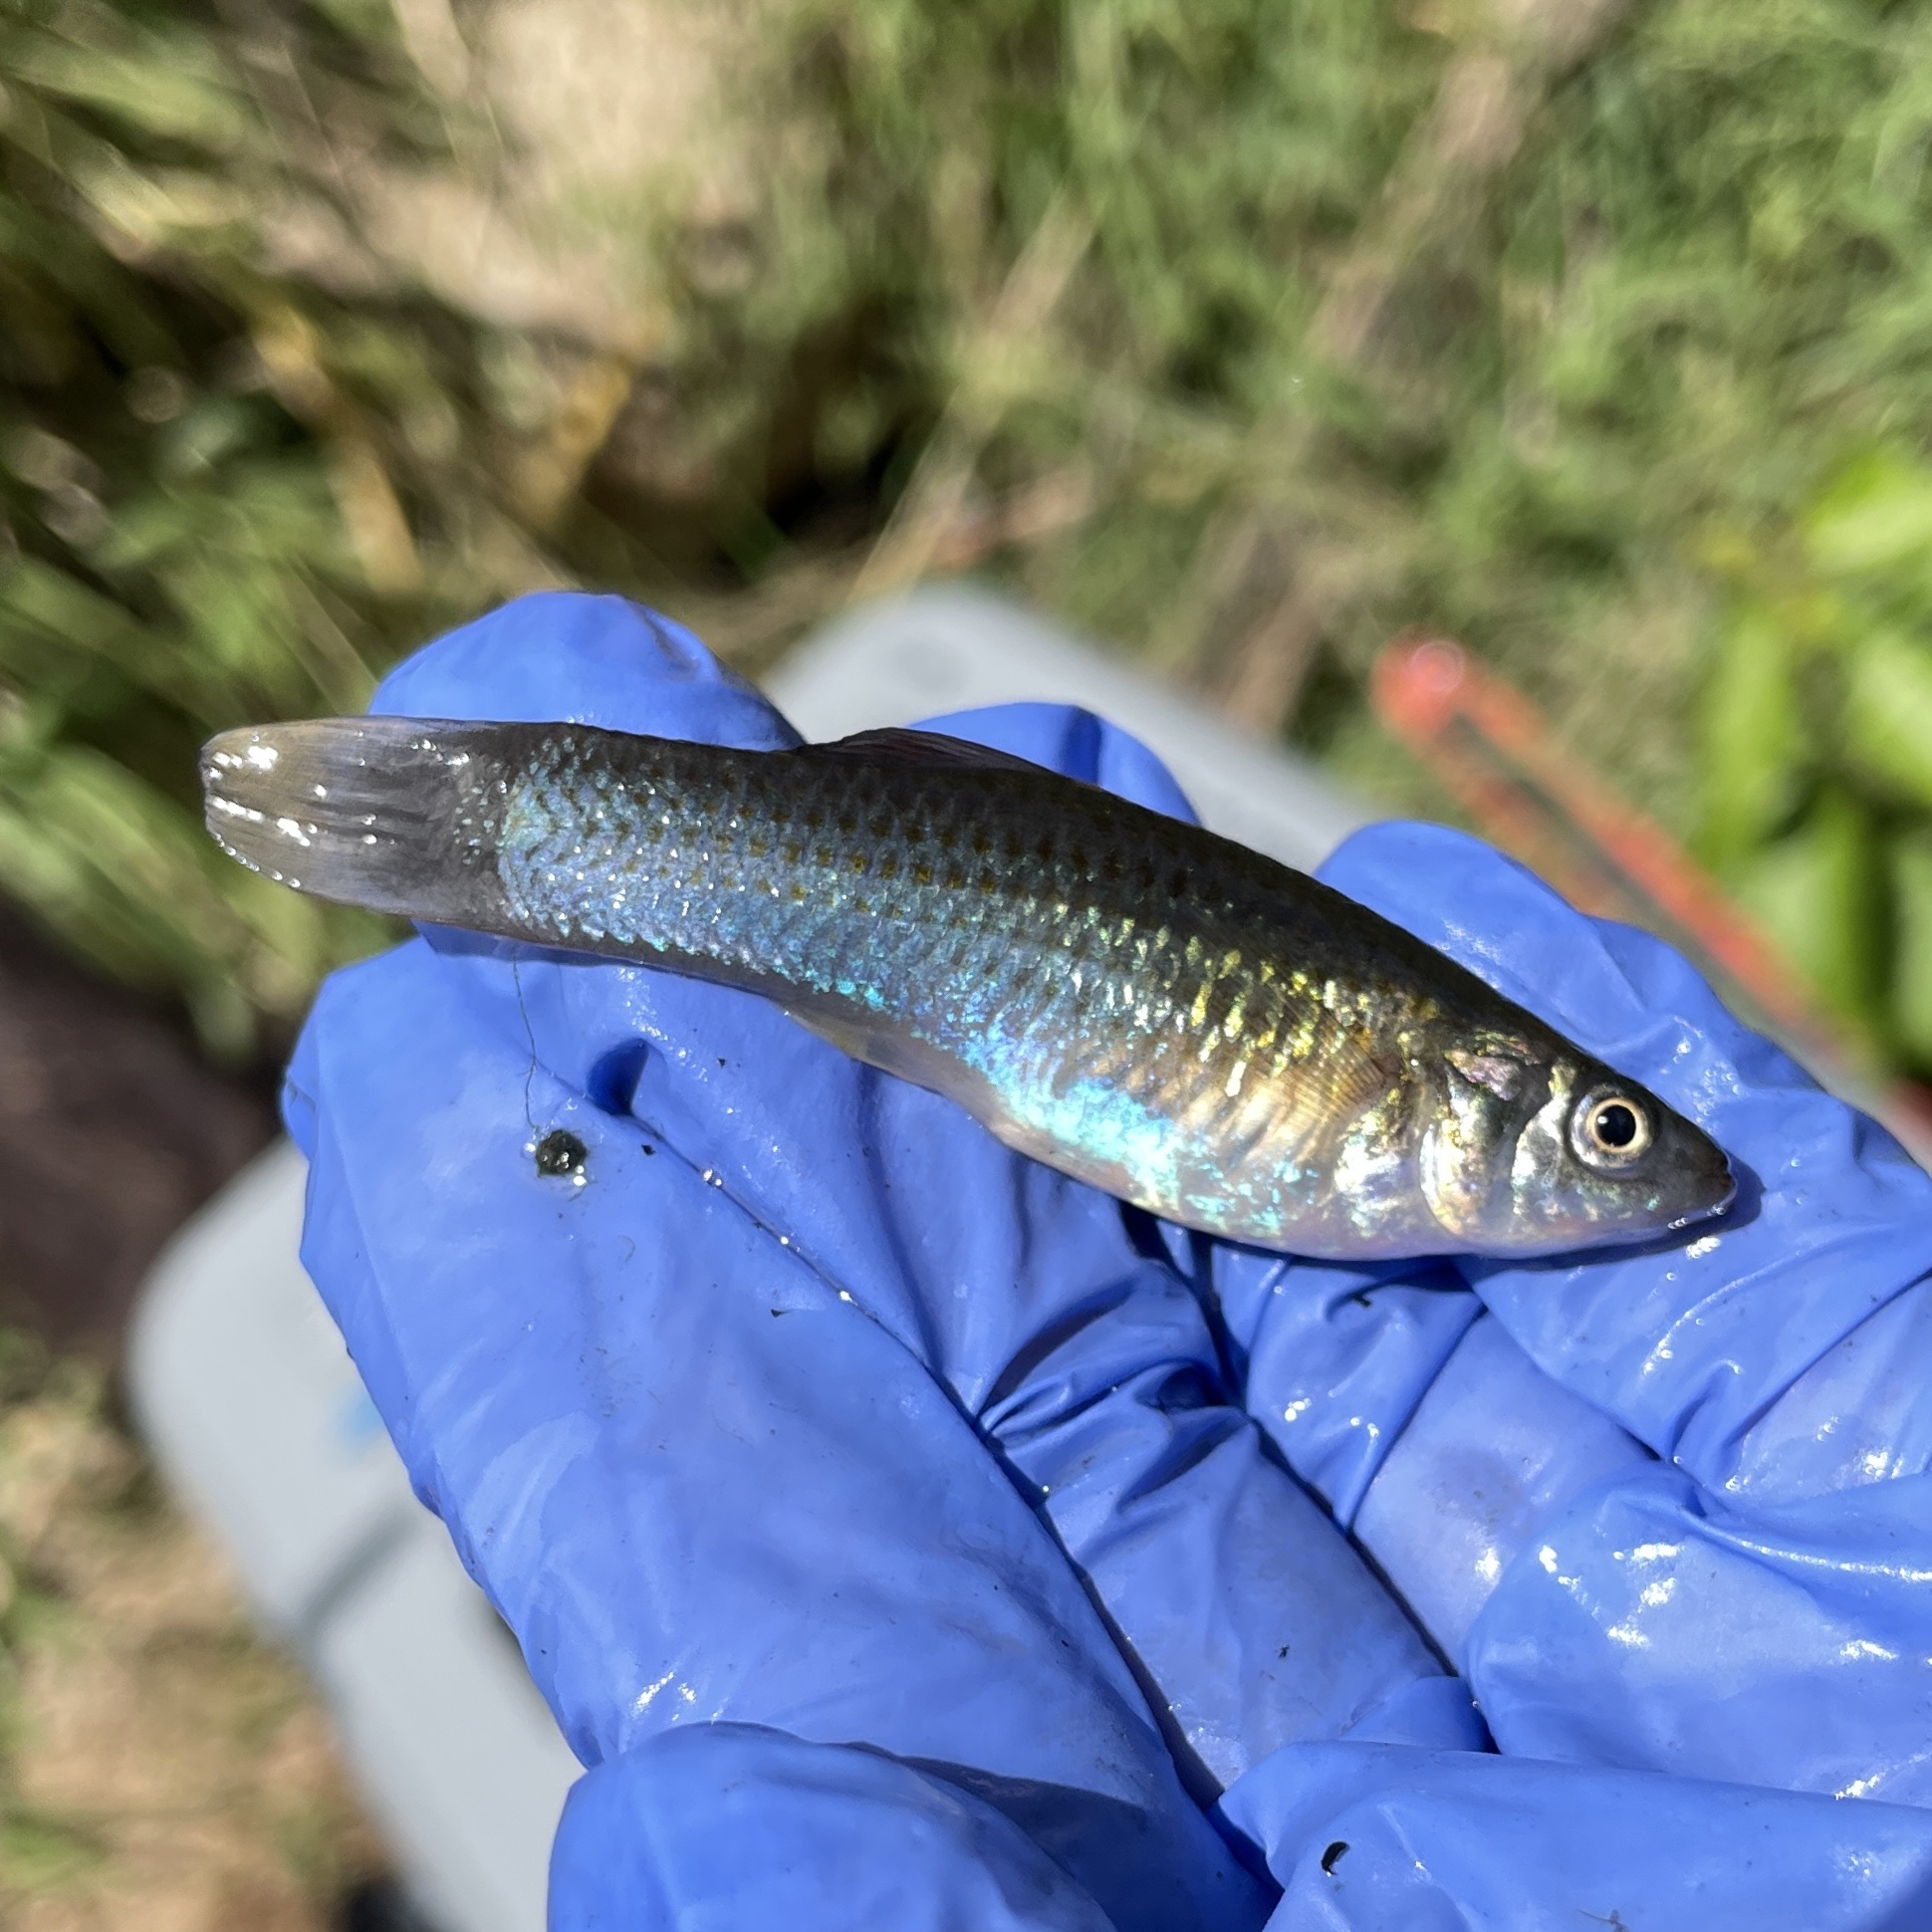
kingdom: Animalia
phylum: Chordata
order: Cyprinodontiformes
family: Poeciliidae
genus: Poecilia
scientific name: Poecilia sphenops
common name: Molly
